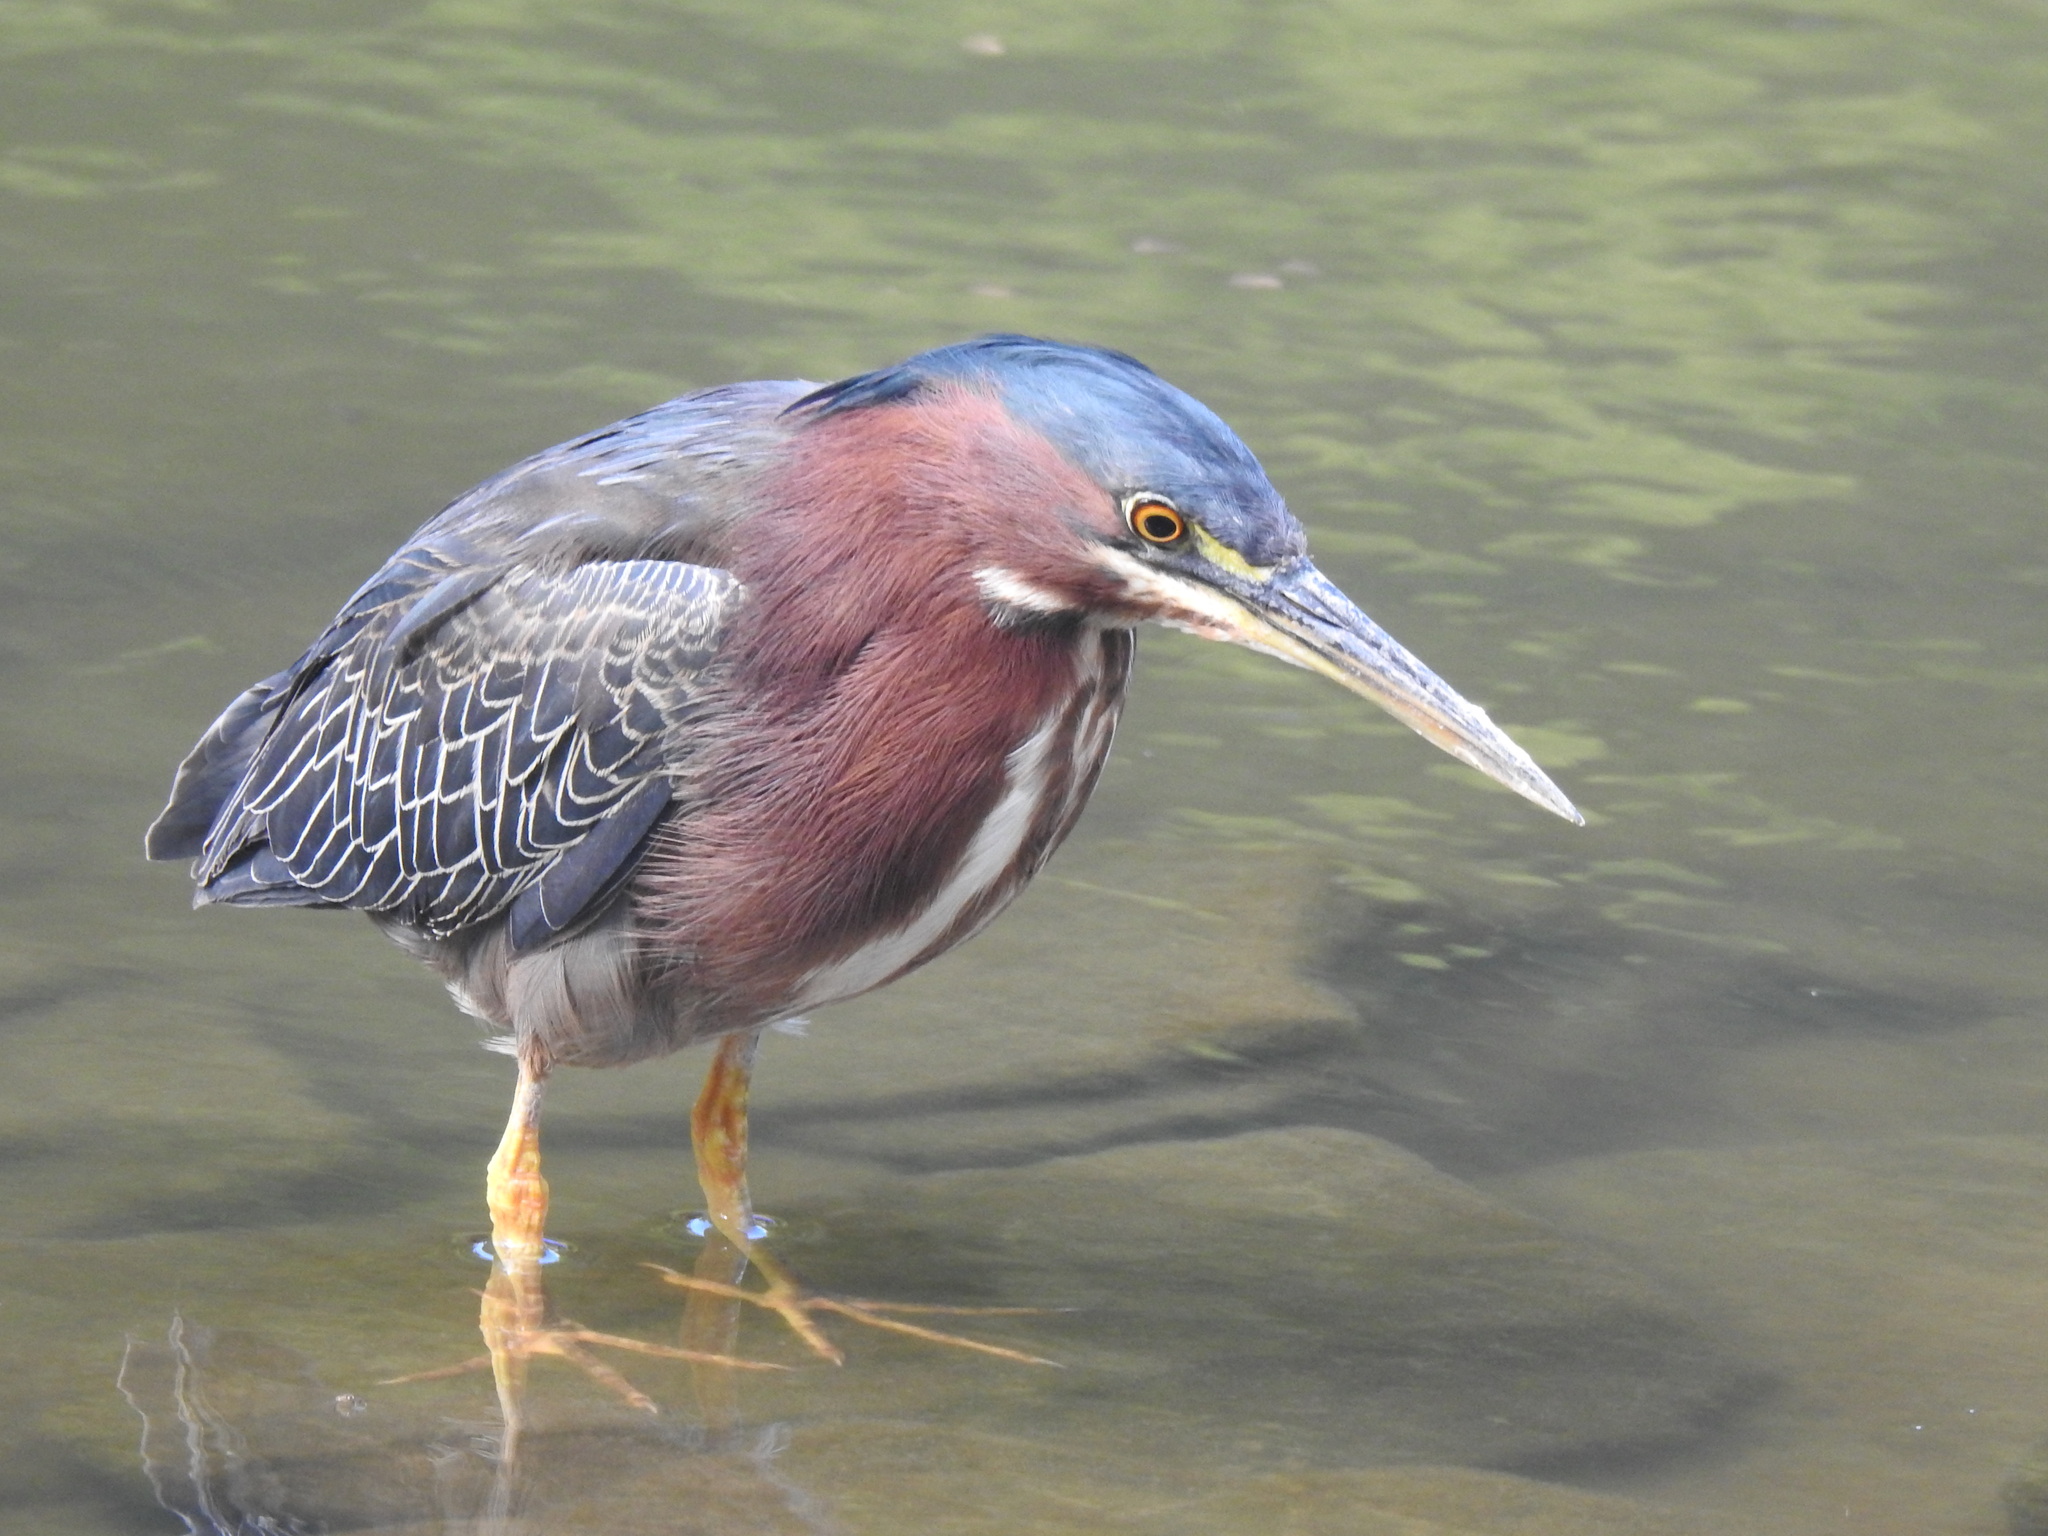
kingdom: Animalia
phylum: Chordata
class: Aves
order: Pelecaniformes
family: Ardeidae
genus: Butorides
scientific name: Butorides virescens
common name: Green heron
